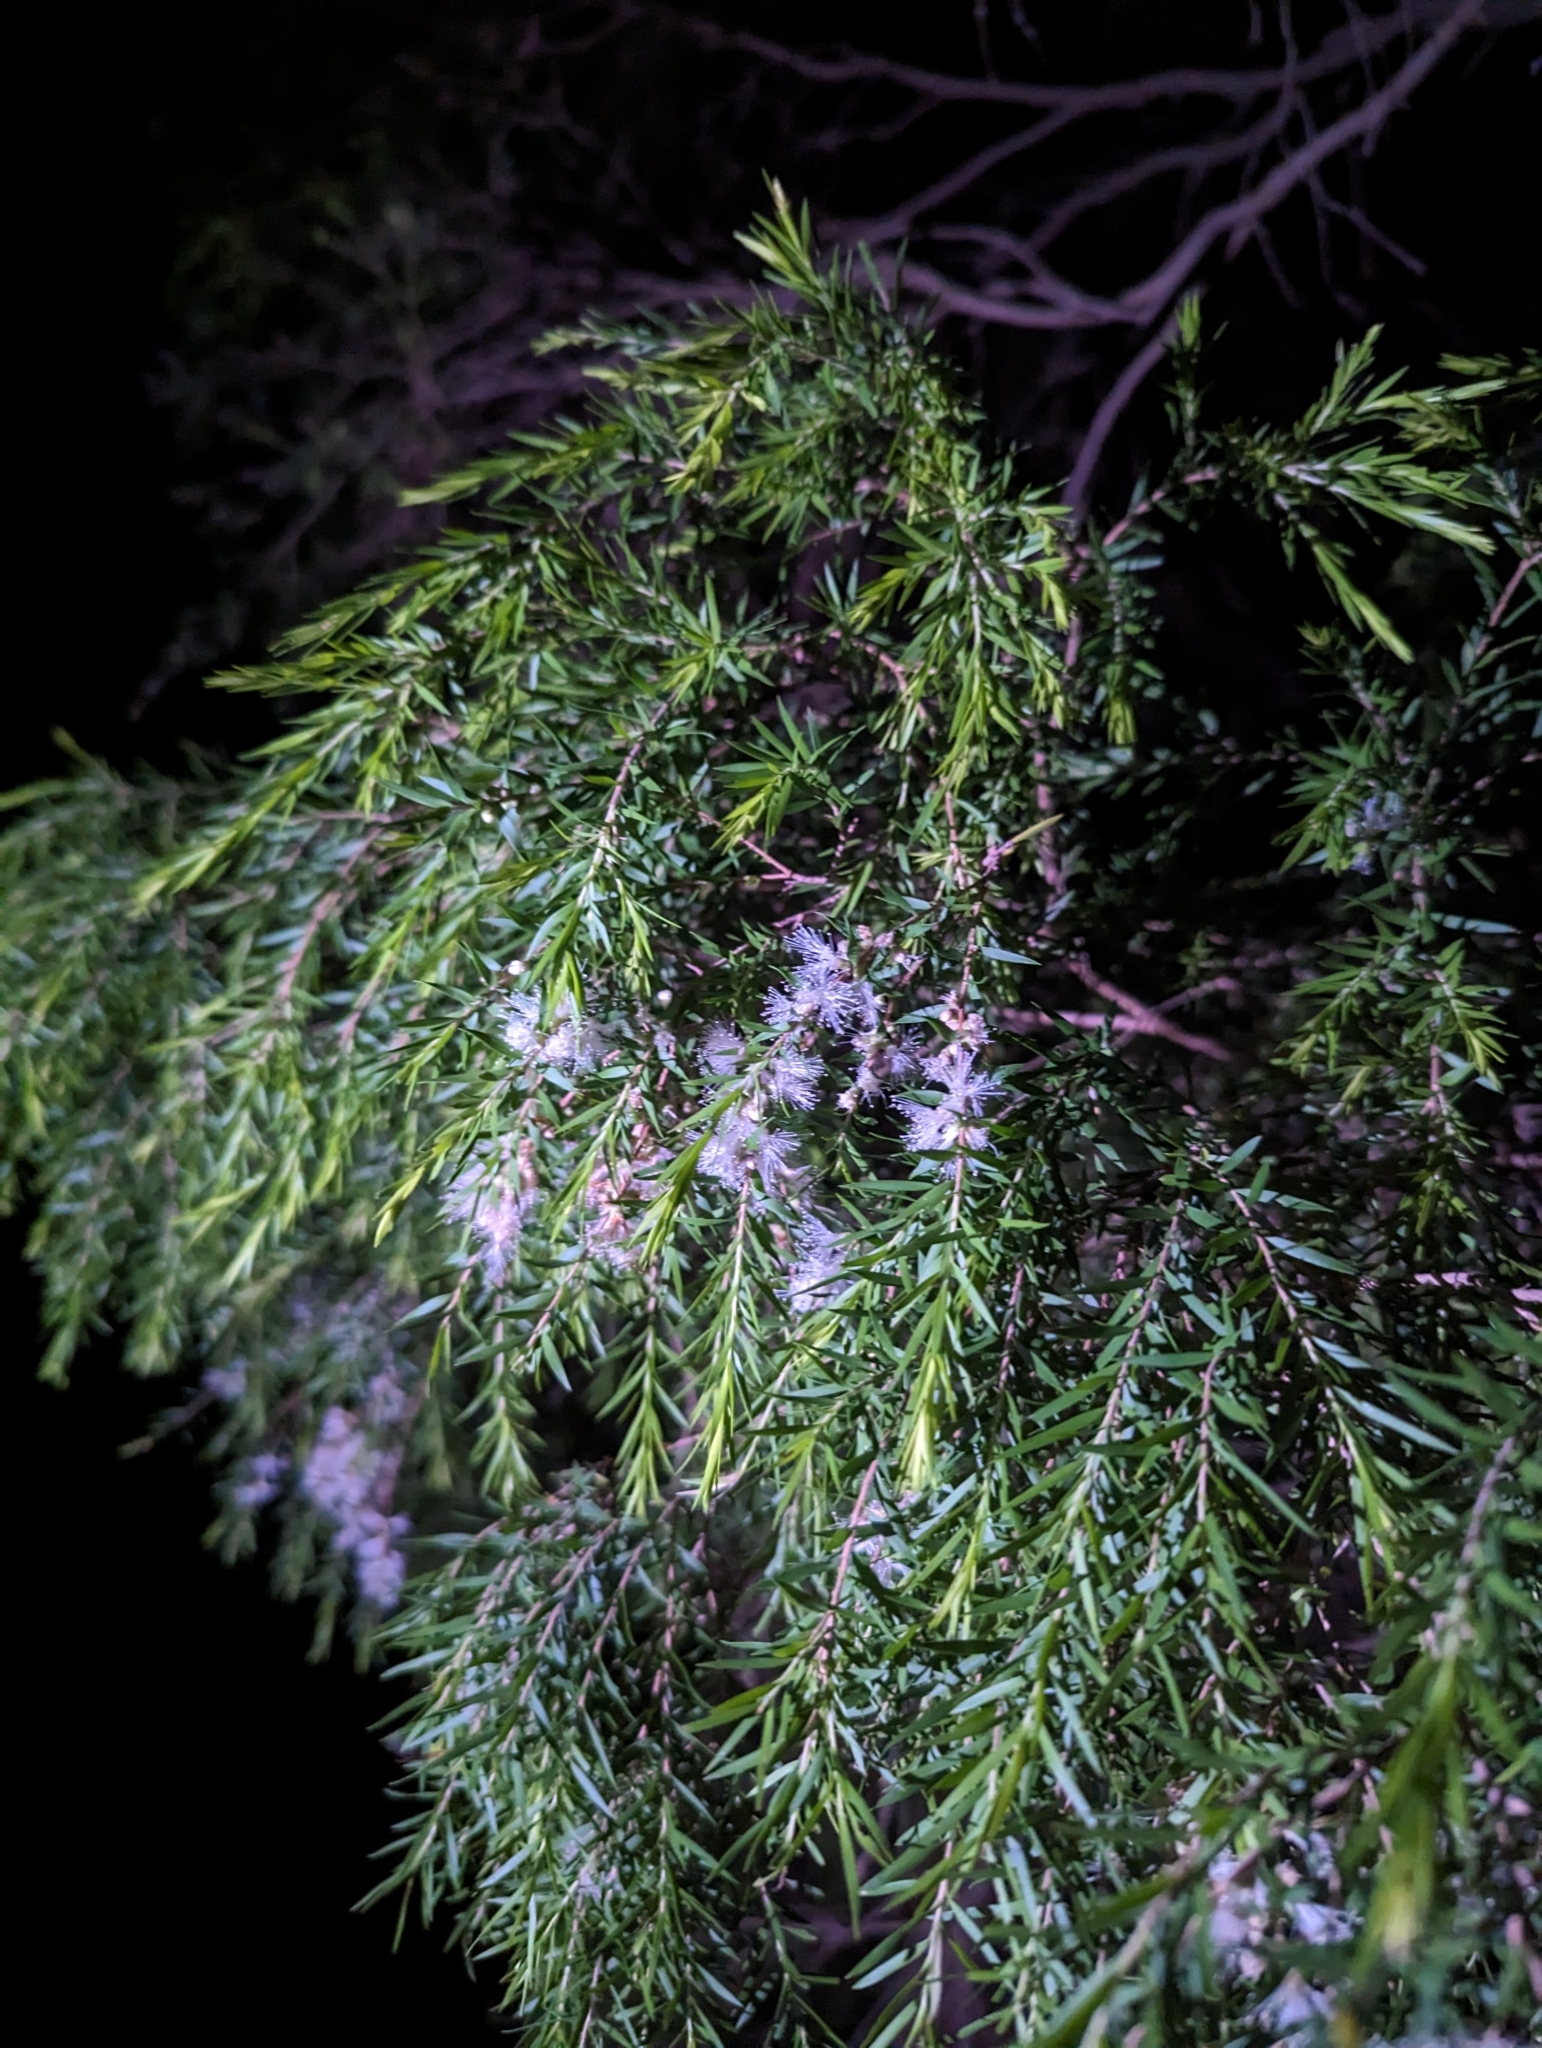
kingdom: Plantae
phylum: Tracheophyta
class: Magnoliopsida
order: Myrtales
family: Myrtaceae
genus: Melaleuca
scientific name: Melaleuca bracteata
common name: Black tea-tree
